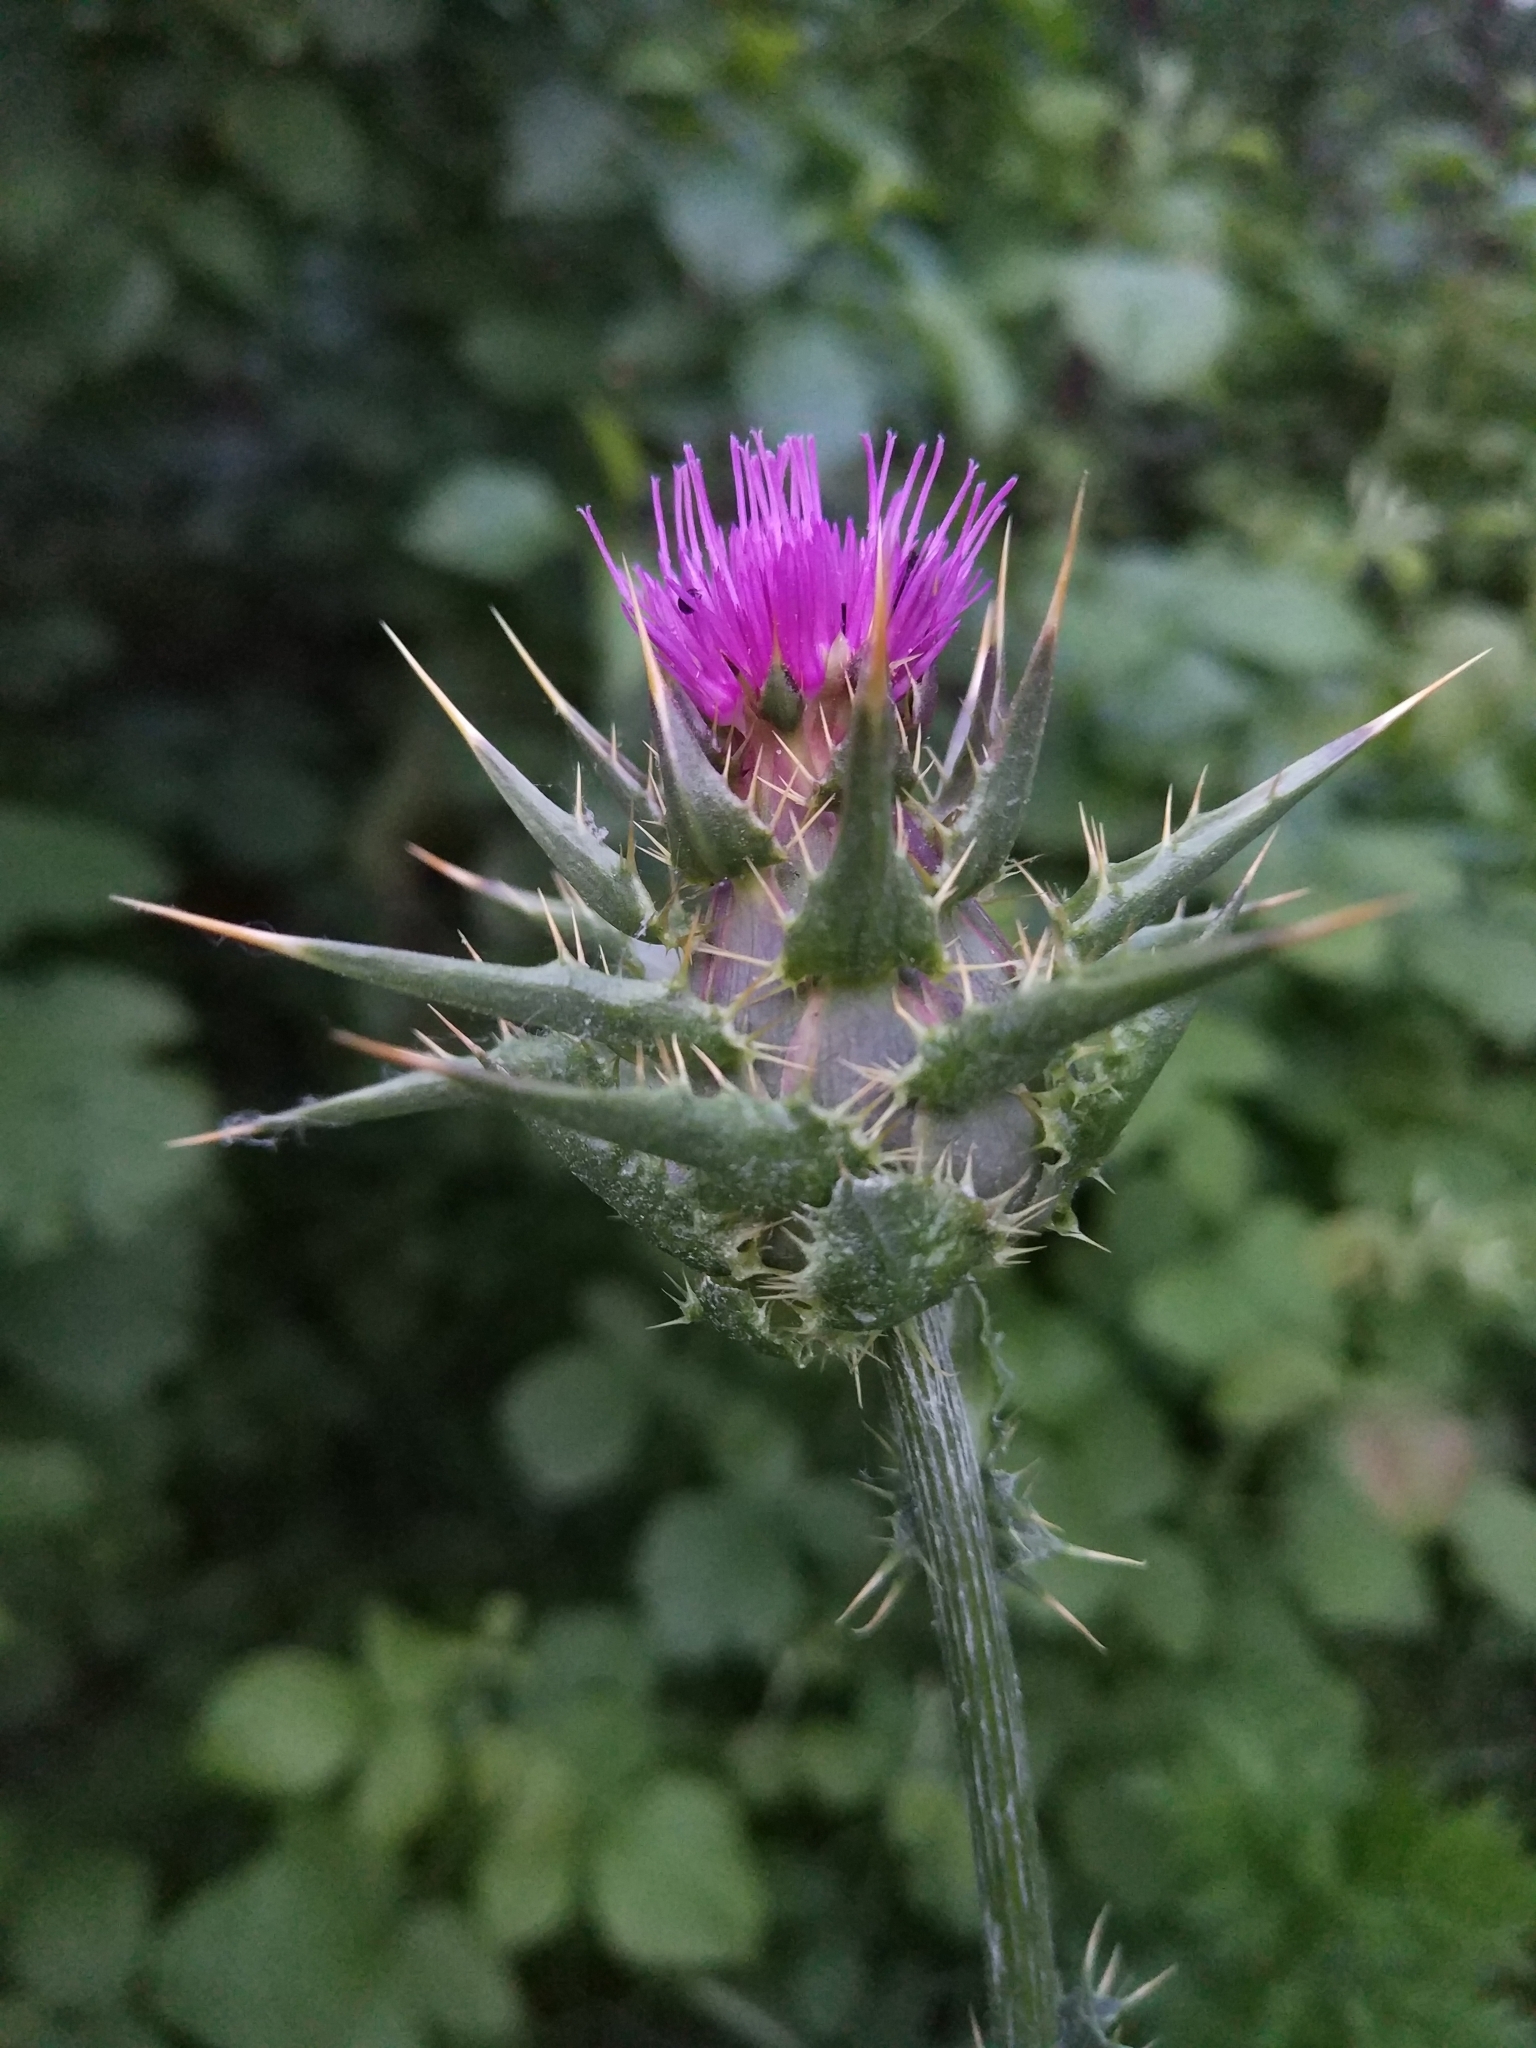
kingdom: Plantae
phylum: Tracheophyta
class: Magnoliopsida
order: Asterales
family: Asteraceae
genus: Silybum
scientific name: Silybum marianum
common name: Milk thistle
